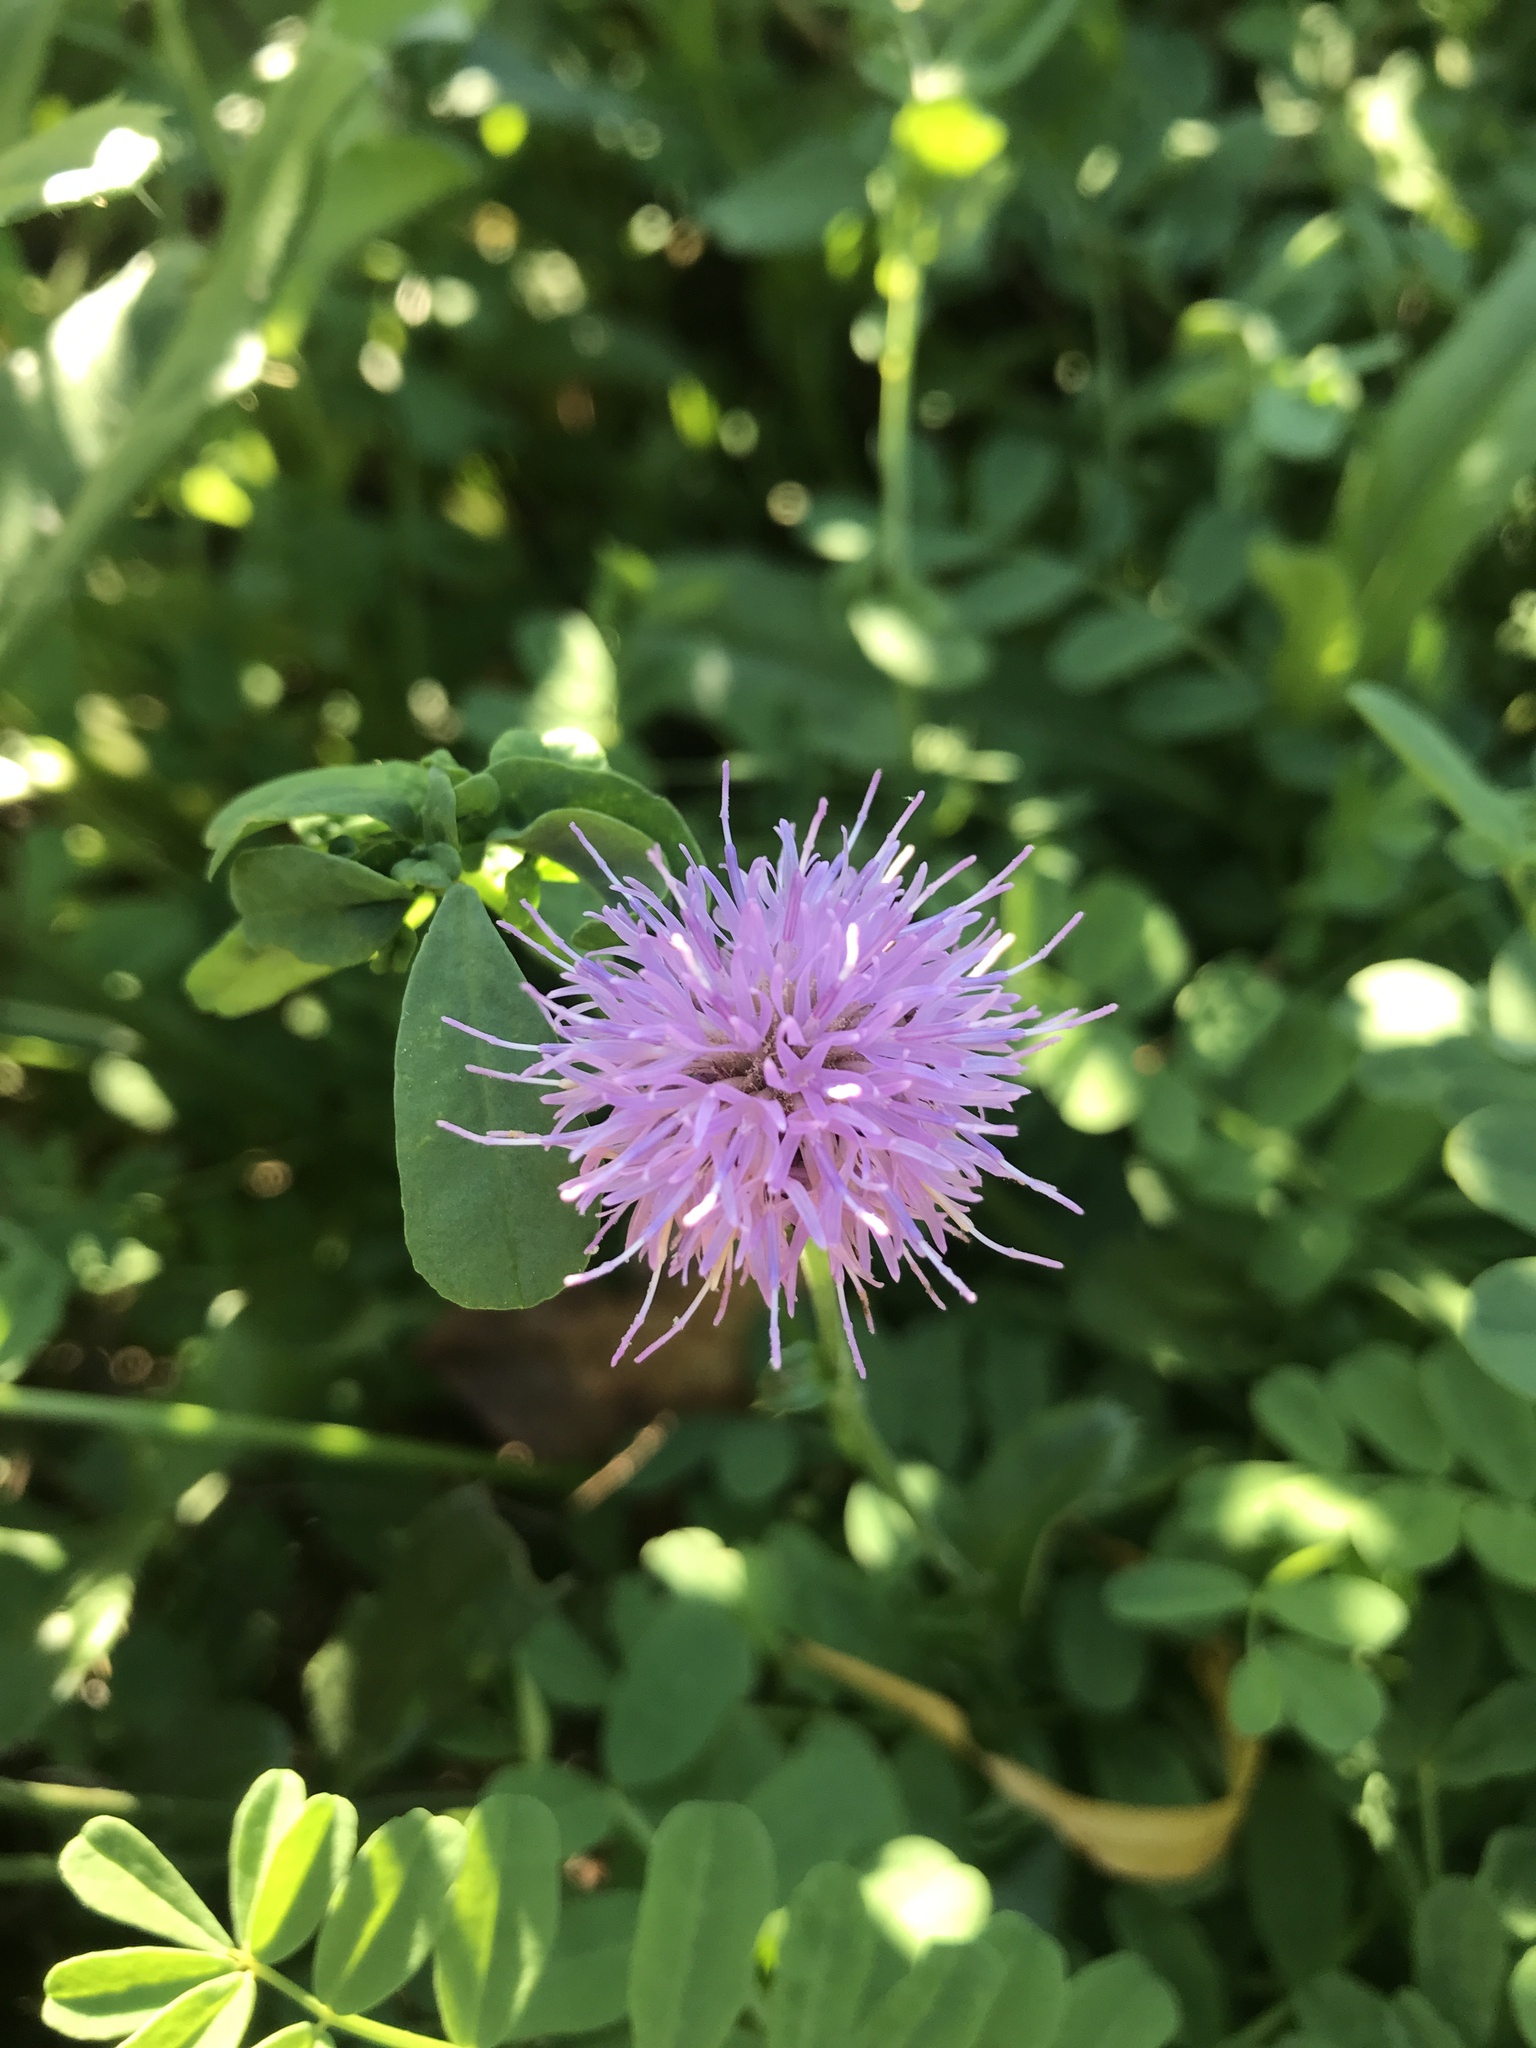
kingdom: Plantae
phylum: Tracheophyta
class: Magnoliopsida
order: Asterales
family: Asteraceae
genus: Cirsium
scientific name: Cirsium arvense
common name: Creeping thistle
